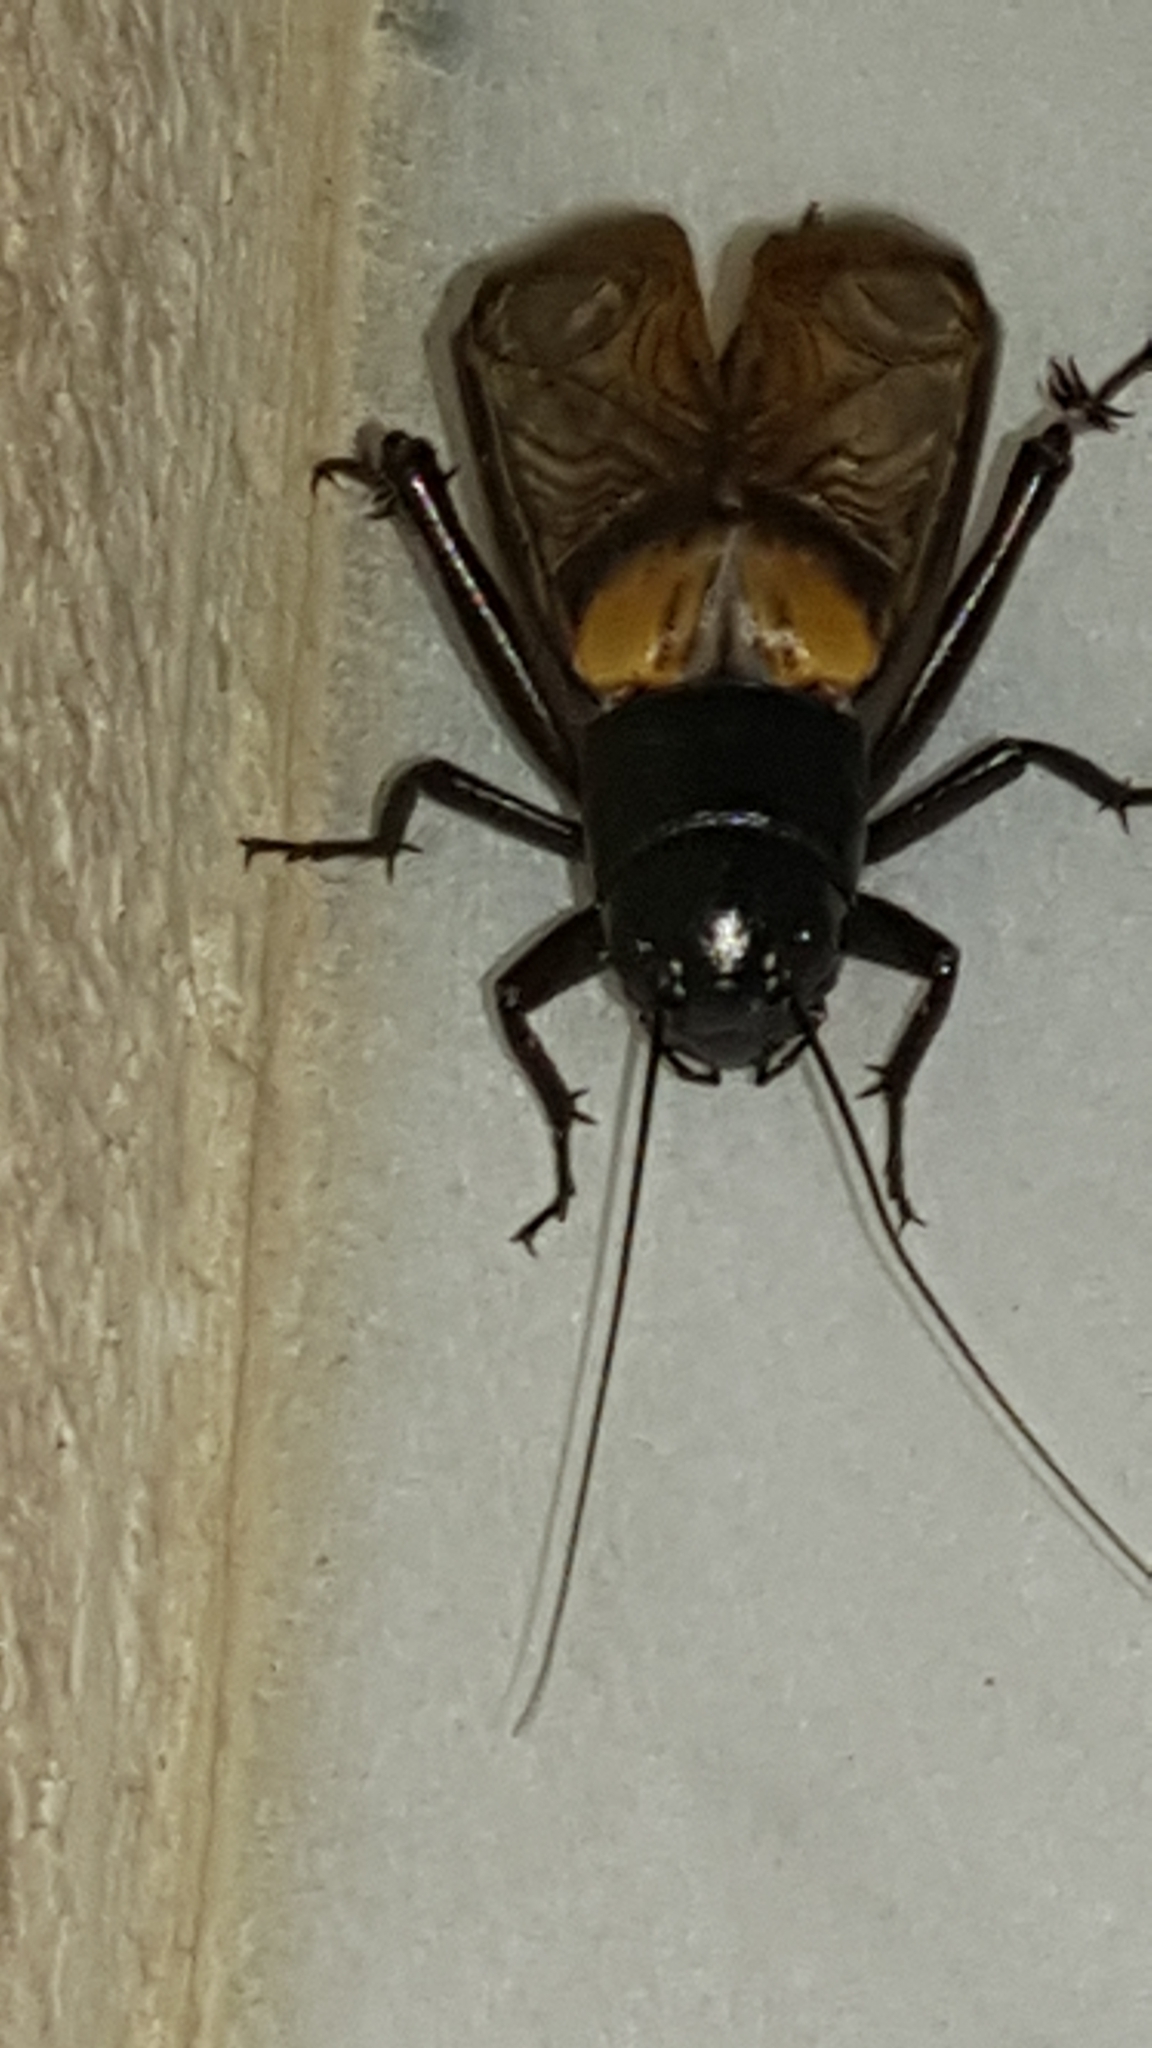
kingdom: Animalia
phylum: Arthropoda
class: Insecta
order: Orthoptera
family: Gryllidae
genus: Gryllus
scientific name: Gryllus bimaculatus
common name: Two-spotted cricket
